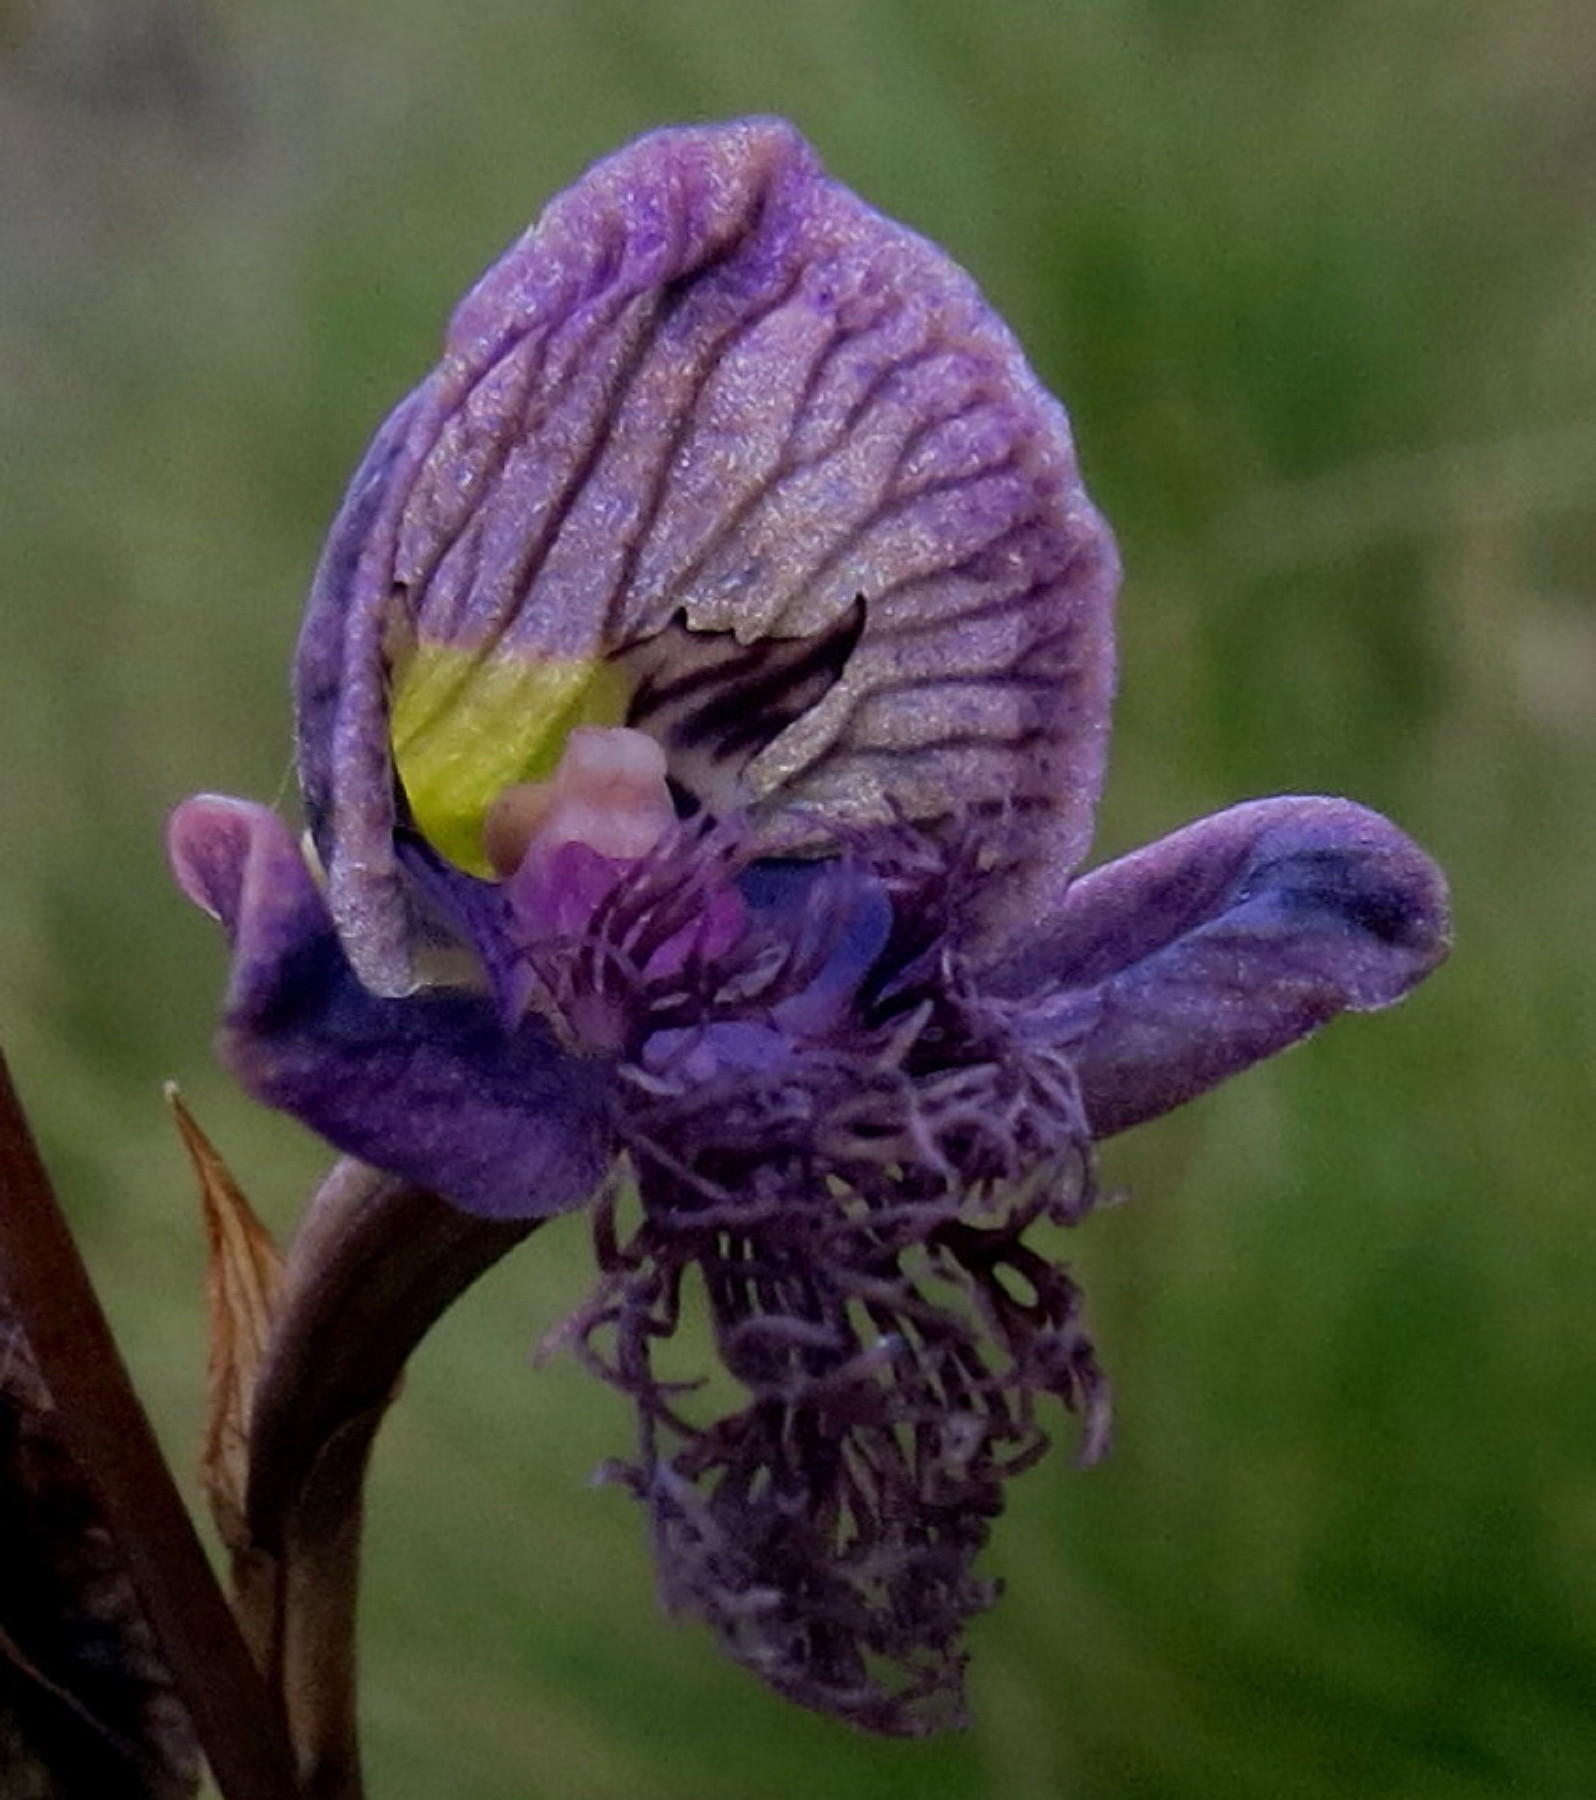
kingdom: Plantae
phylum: Tracheophyta
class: Liliopsida
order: Asparagales
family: Orchidaceae
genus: Disa
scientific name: Disa lugens
